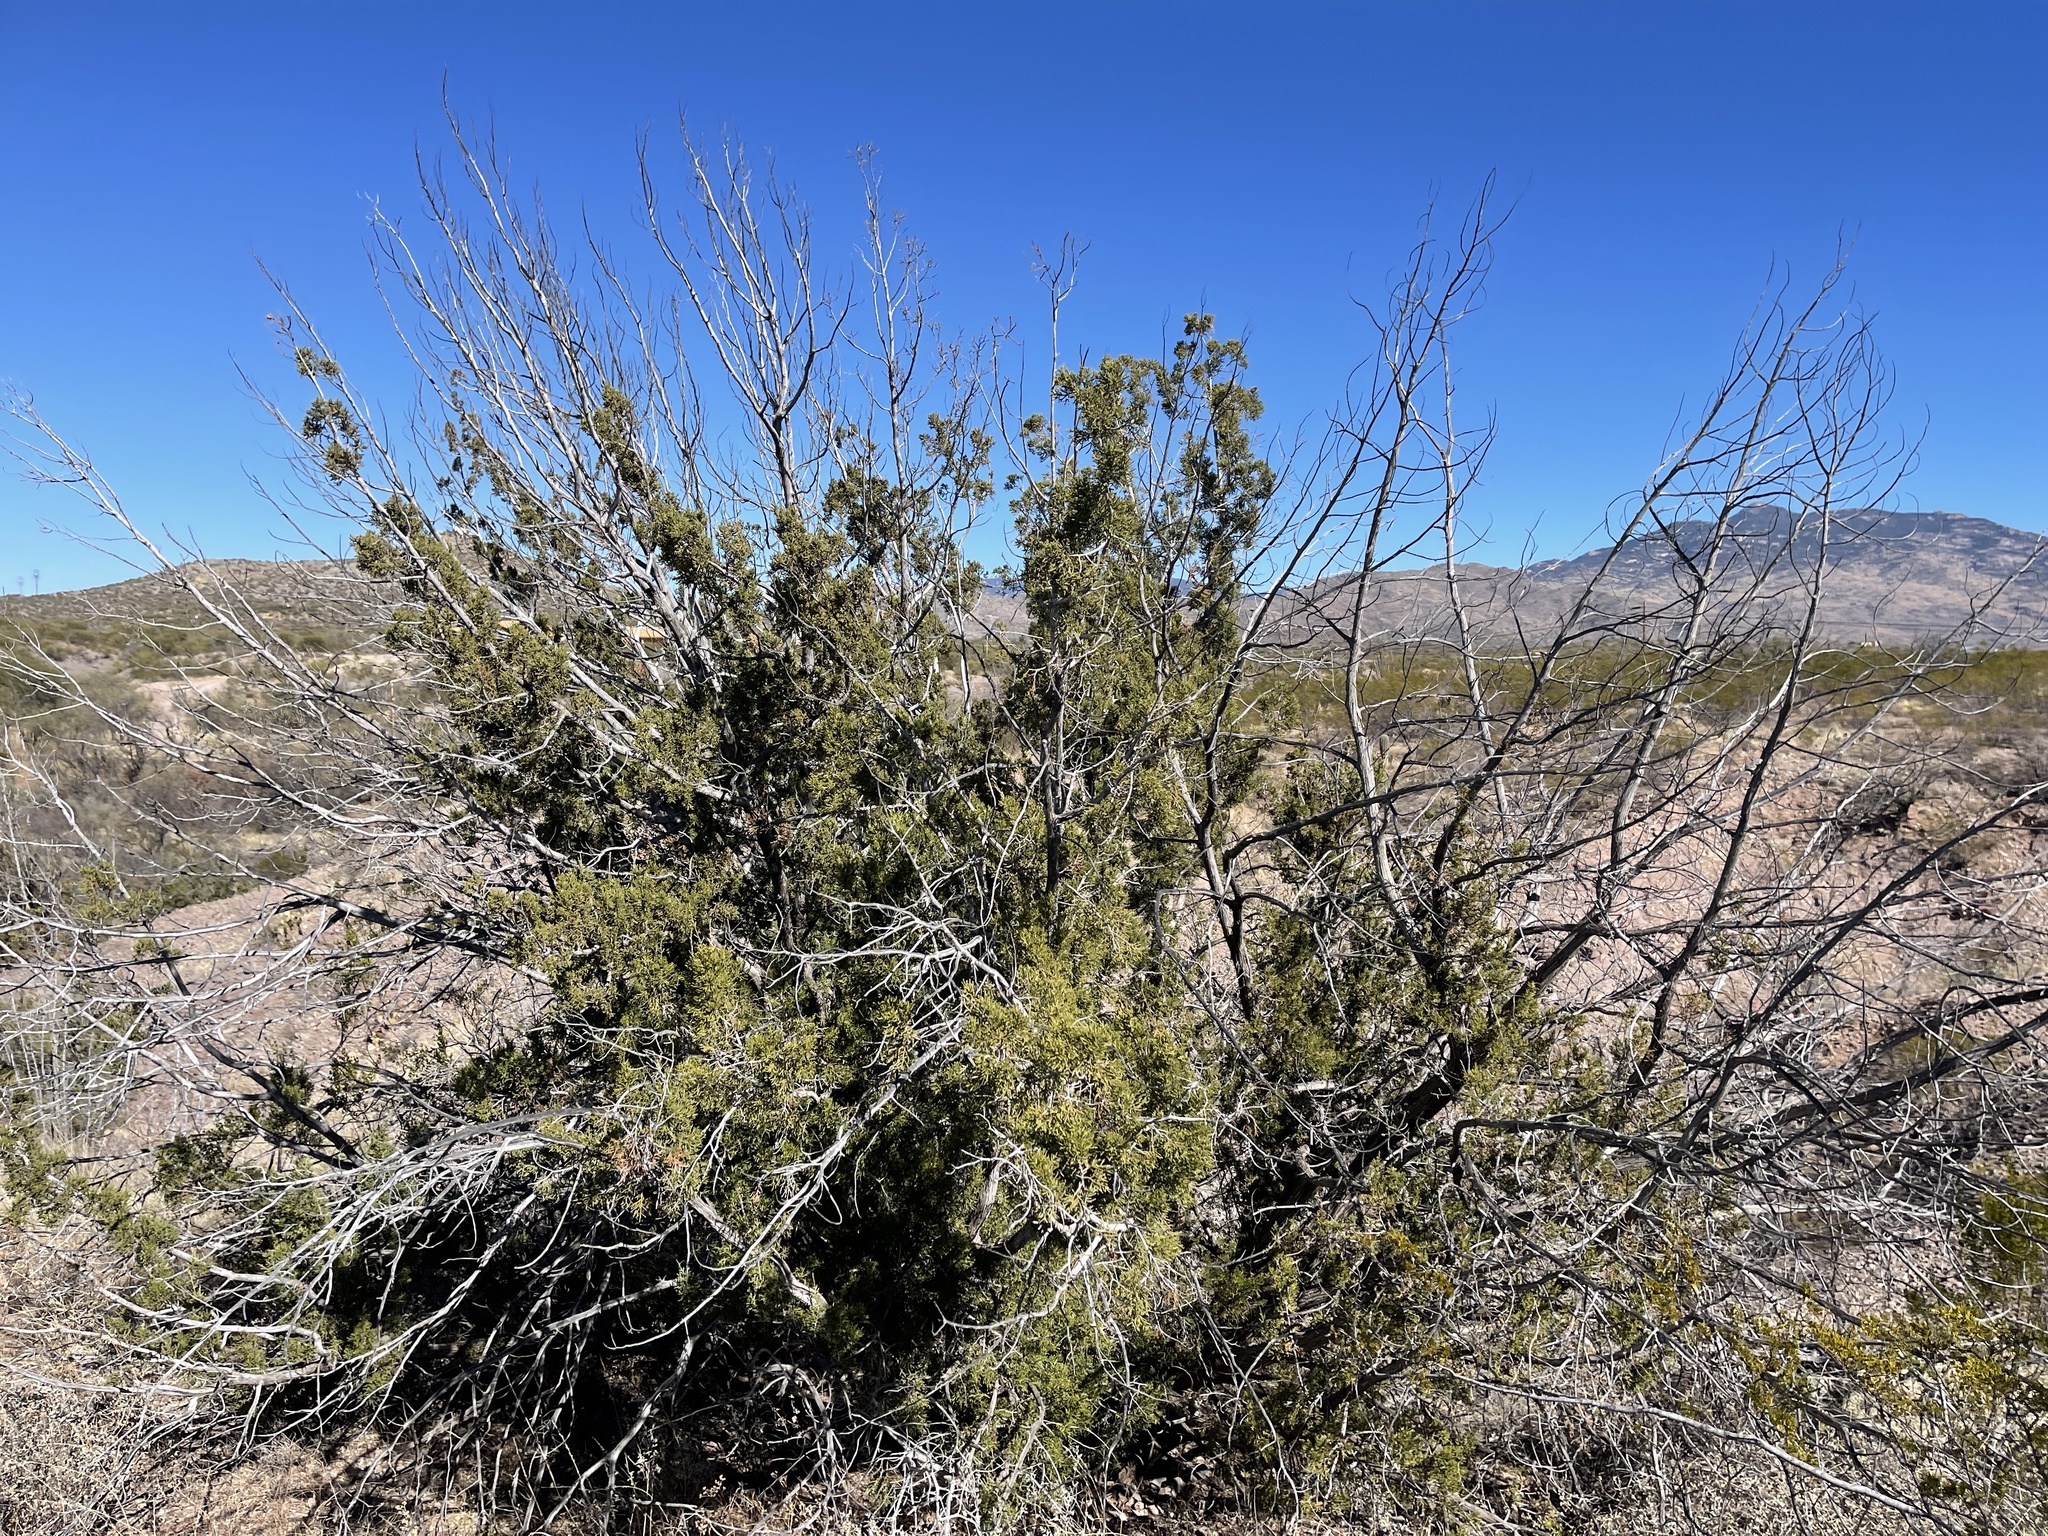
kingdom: Plantae
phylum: Tracheophyta
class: Pinopsida
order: Pinales
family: Cupressaceae
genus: Juniperus
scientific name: Juniperus monosperma
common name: One-seed juniper
